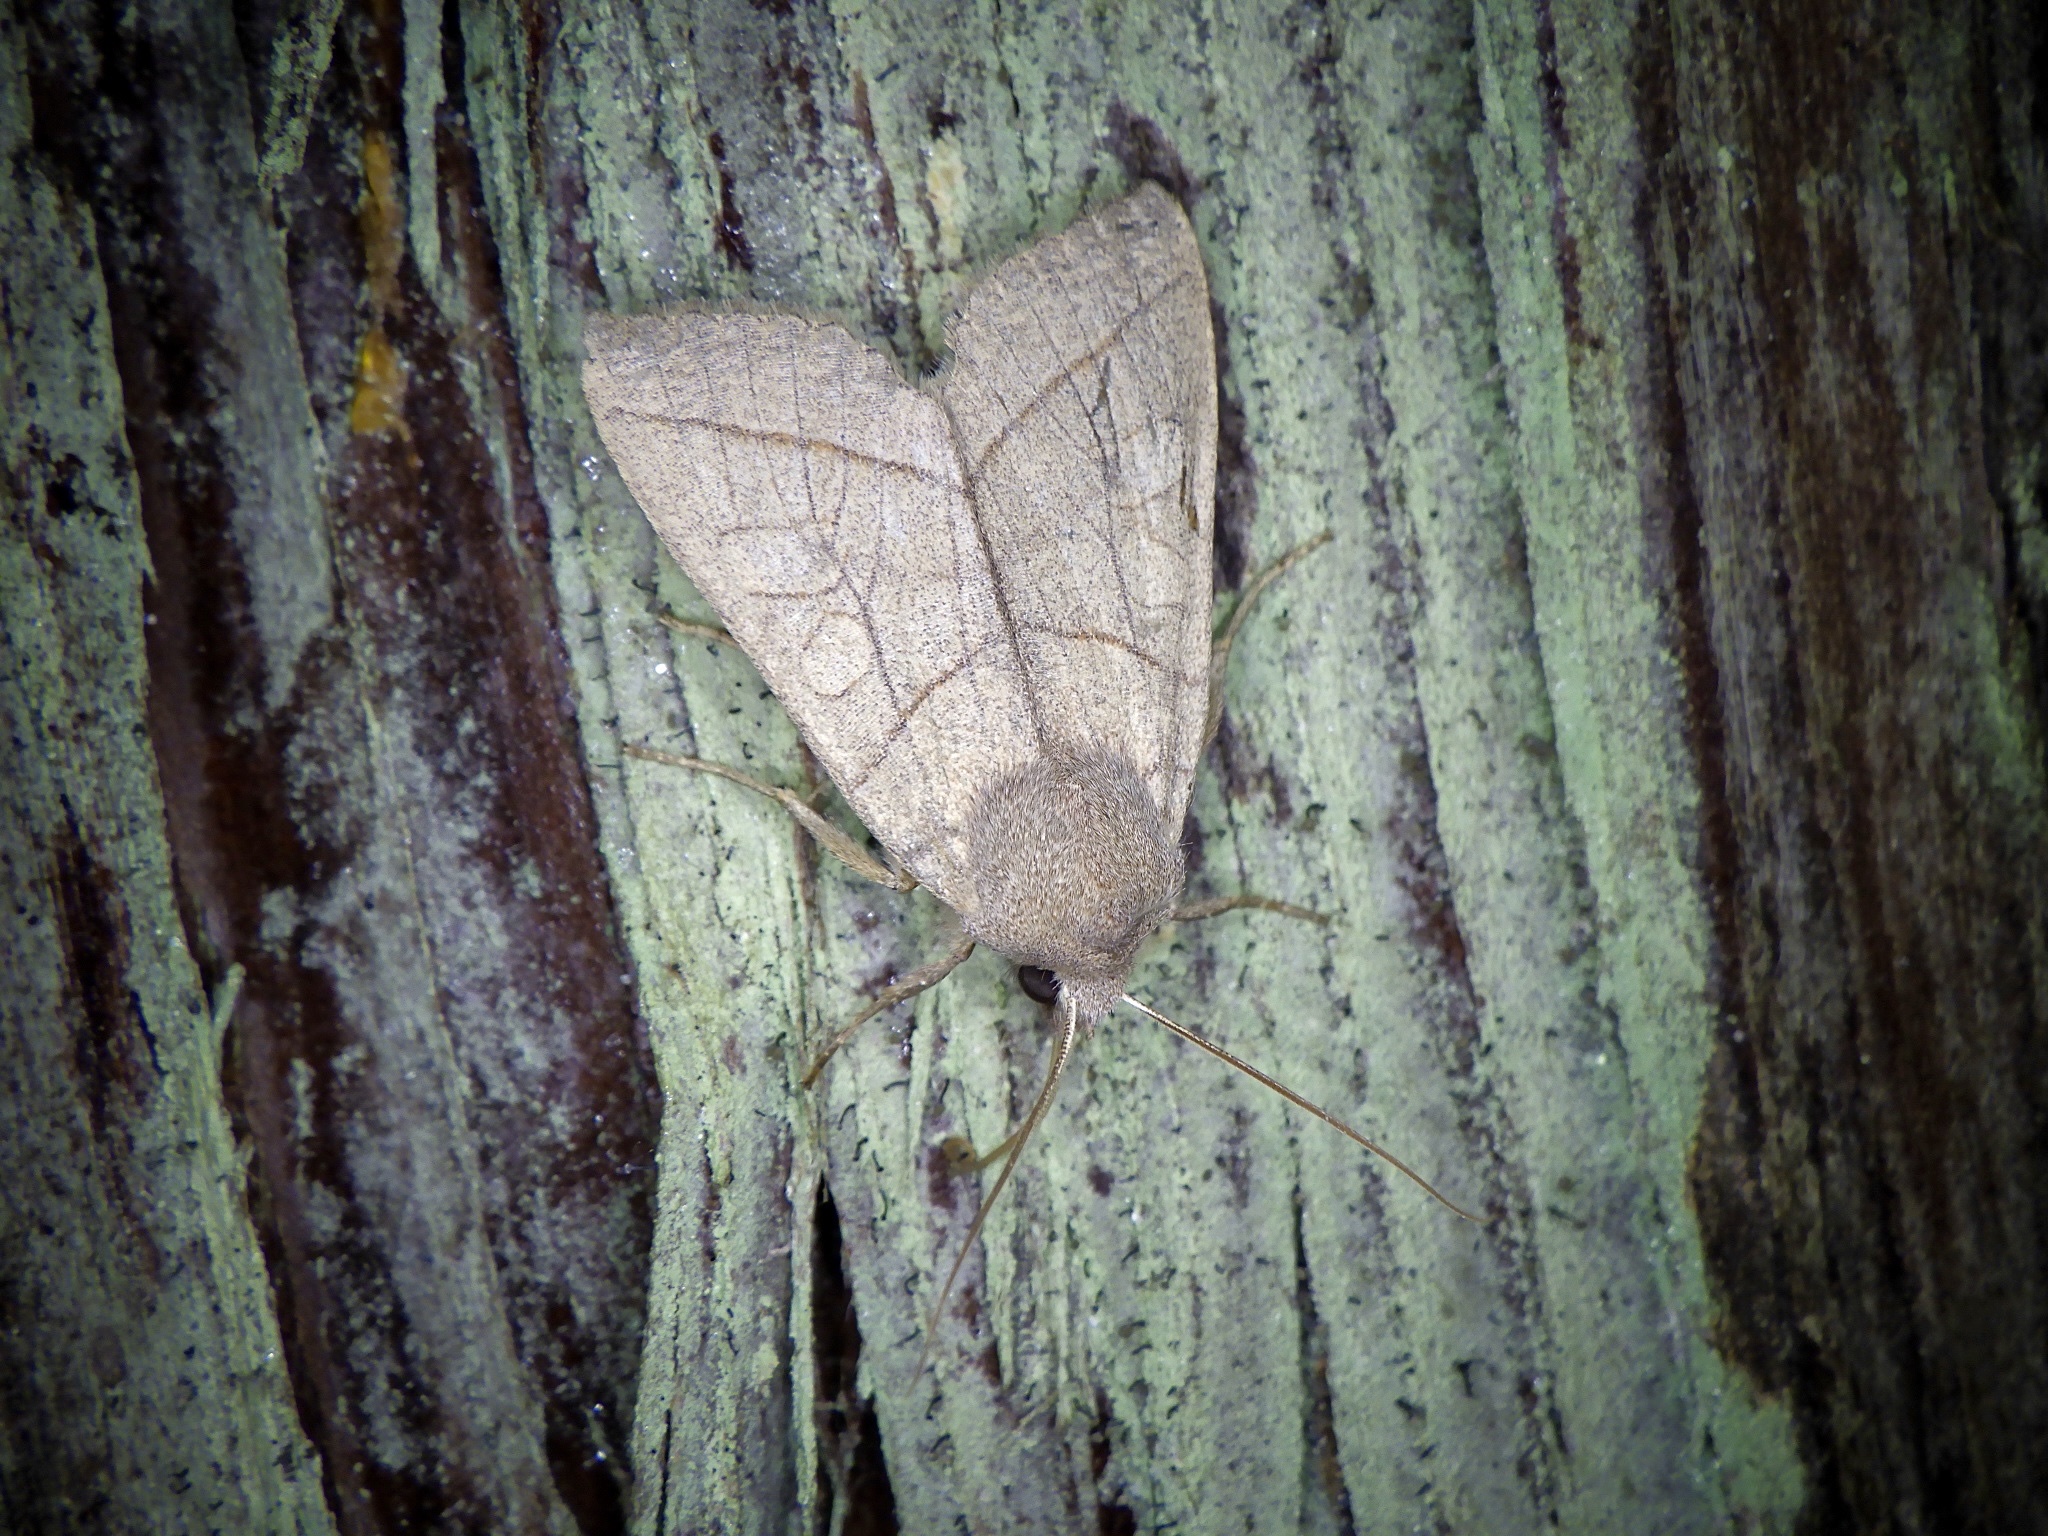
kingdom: Animalia
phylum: Arthropoda
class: Insecta
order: Lepidoptera
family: Noctuidae
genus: Telorta
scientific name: Telorta divergens
